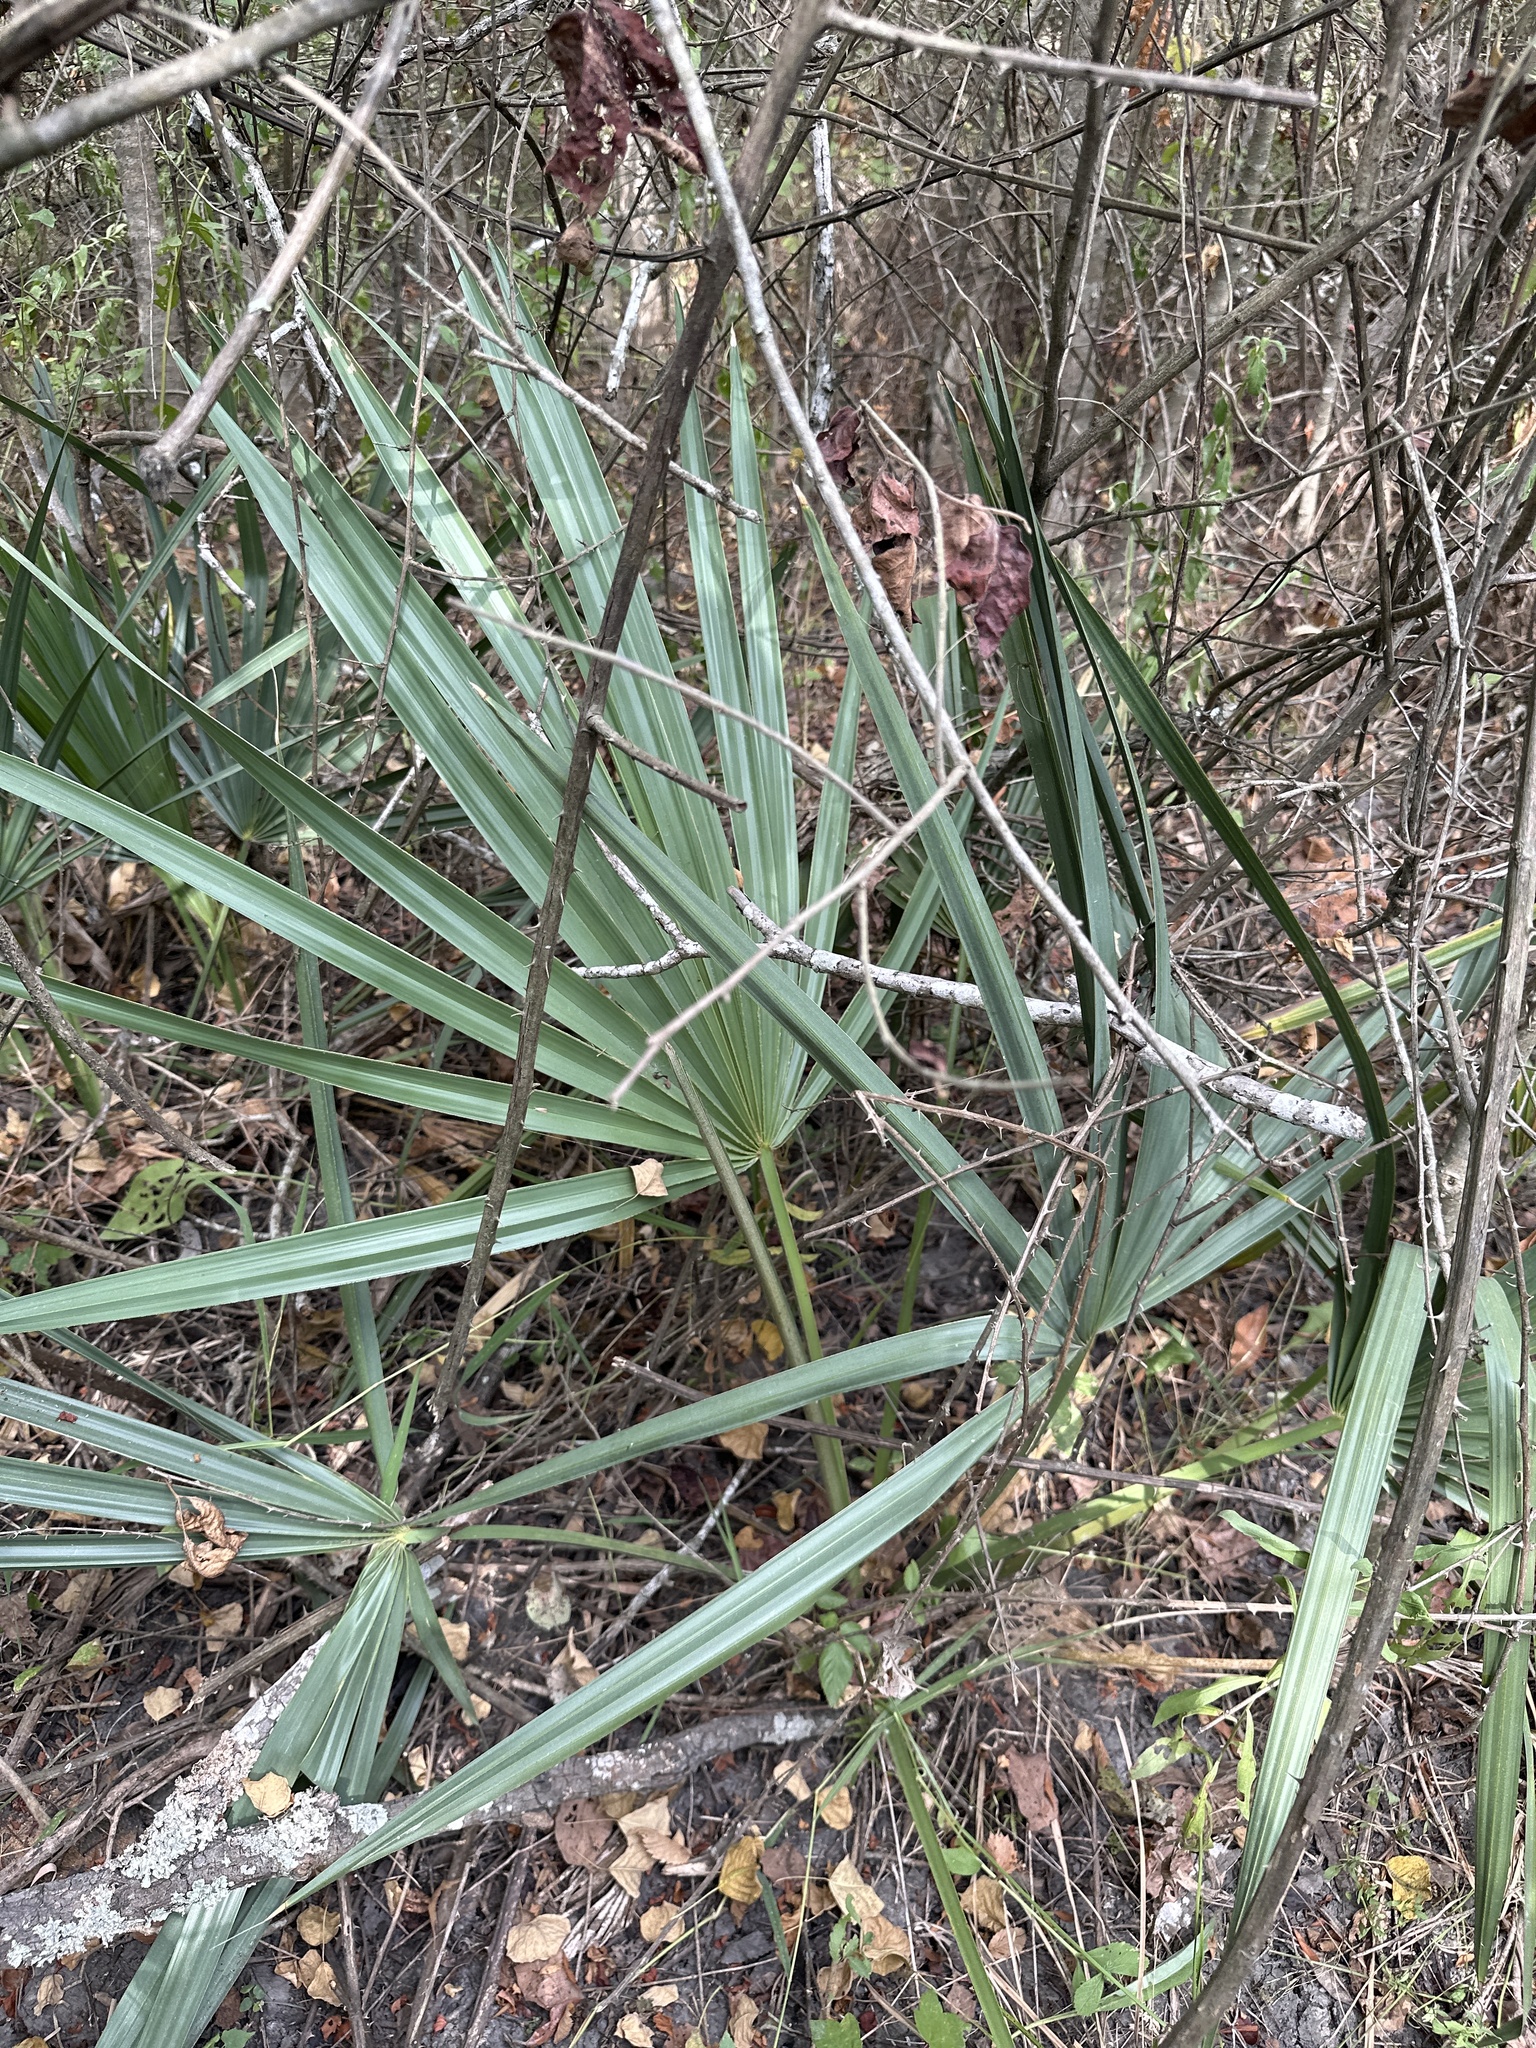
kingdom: Plantae
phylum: Tracheophyta
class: Liliopsida
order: Arecales
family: Arecaceae
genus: Sabal
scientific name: Sabal minor
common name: Dwarf palmetto
